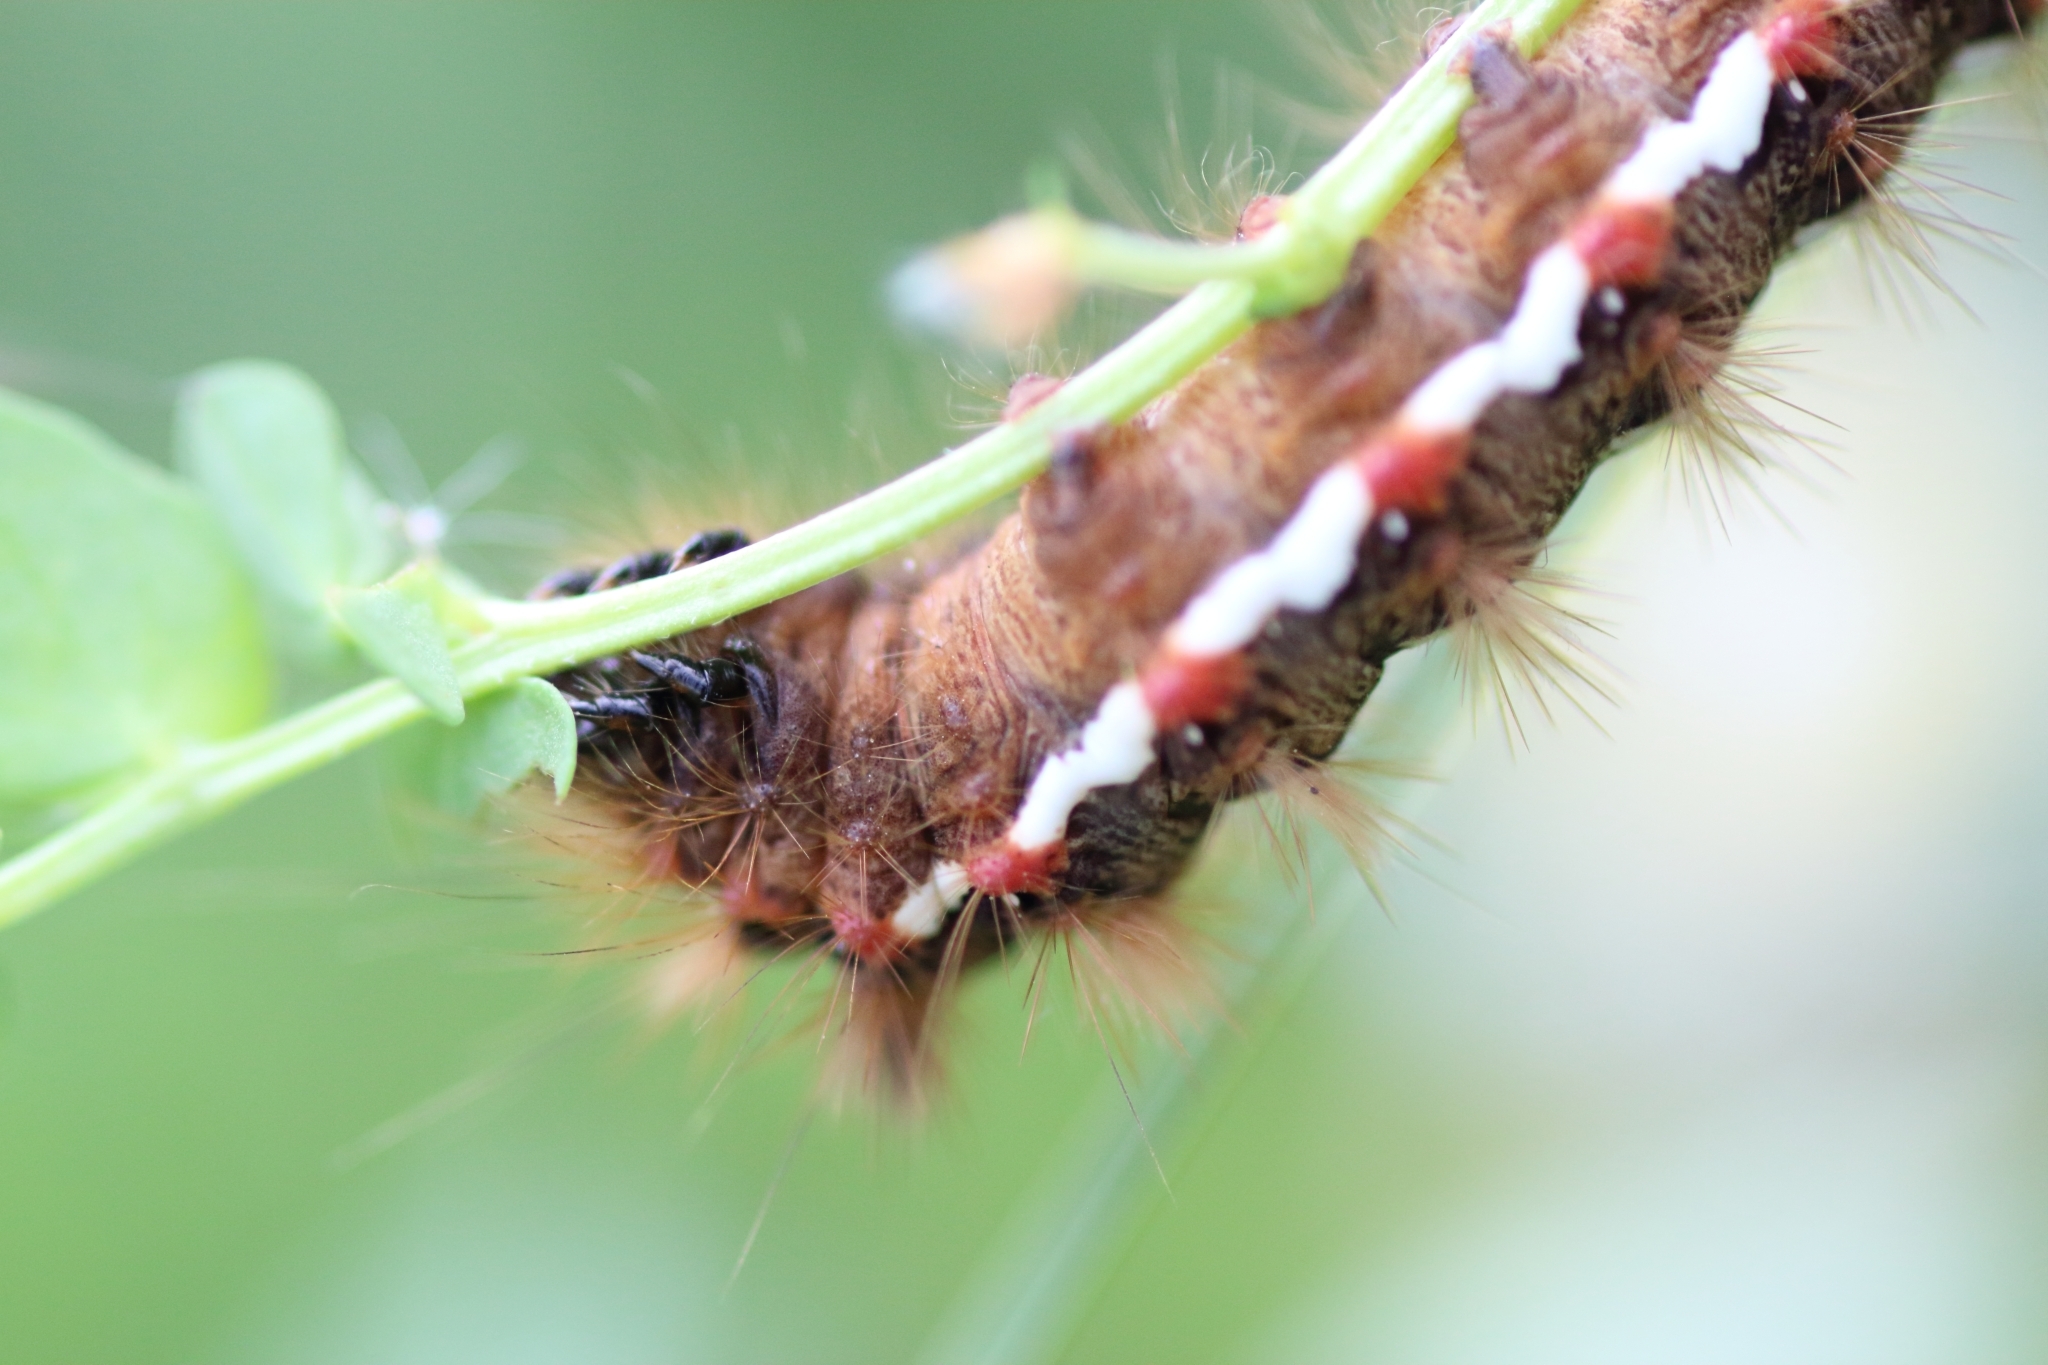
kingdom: Animalia
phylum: Arthropoda
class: Insecta
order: Lepidoptera
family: Noctuidae
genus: Acronicta
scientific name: Acronicta rumicis
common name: Knot grass
